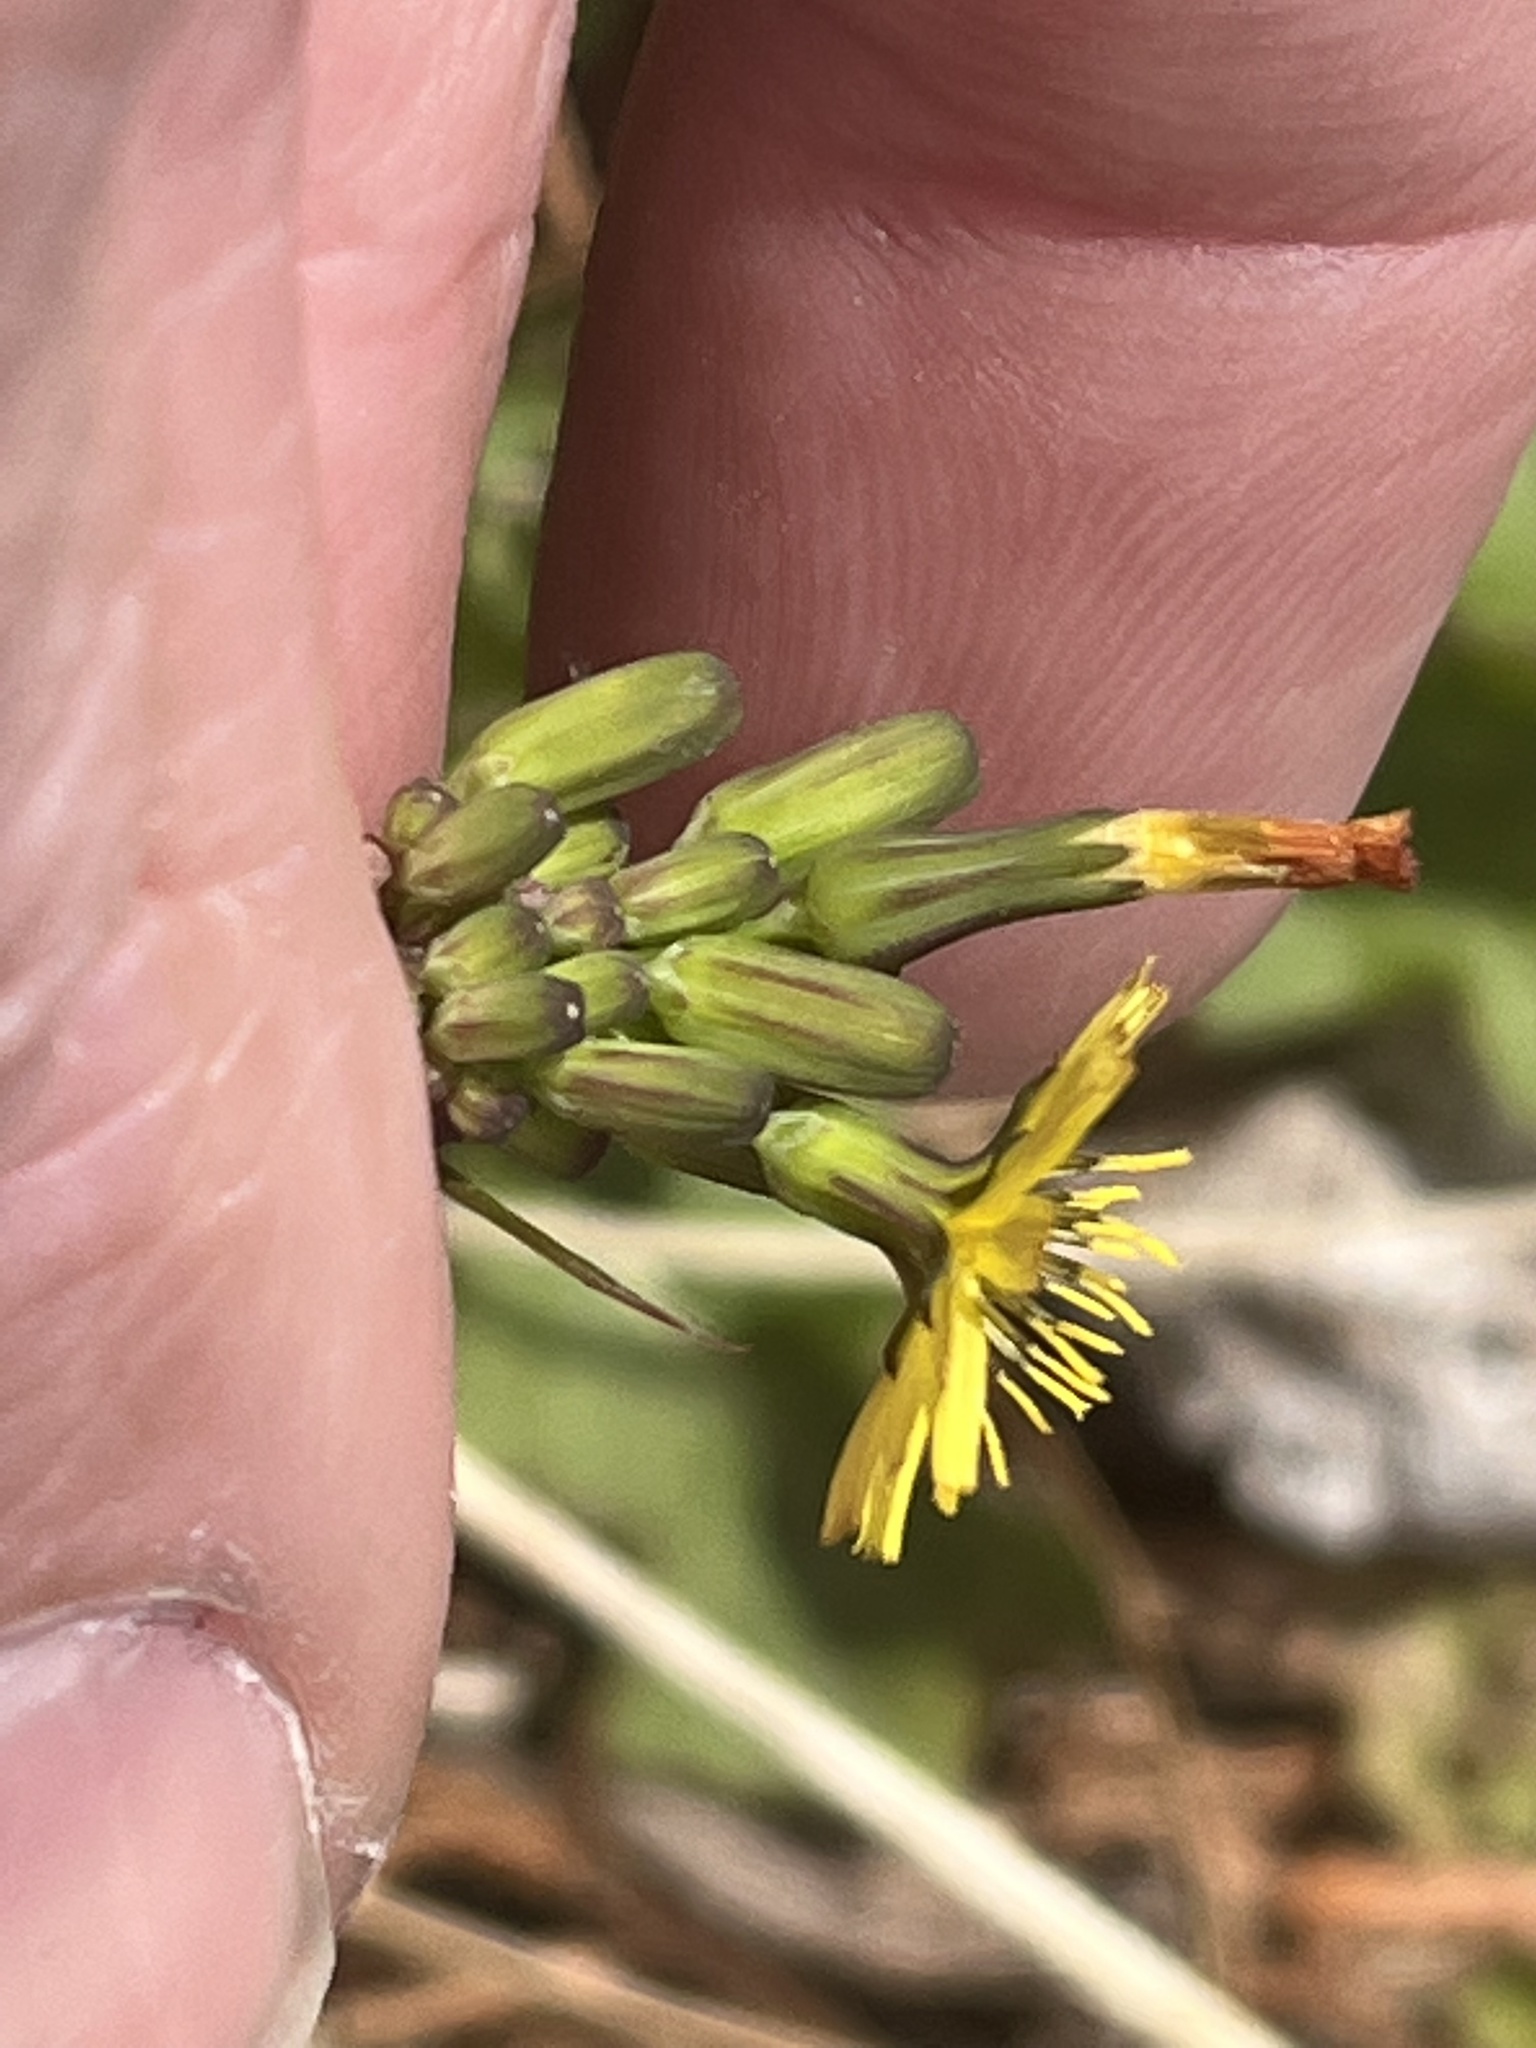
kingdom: Plantae
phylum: Tracheophyta
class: Magnoliopsida
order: Asterales
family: Asteraceae
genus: Youngia
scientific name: Youngia japonica
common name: Oriental false hawksbeard
